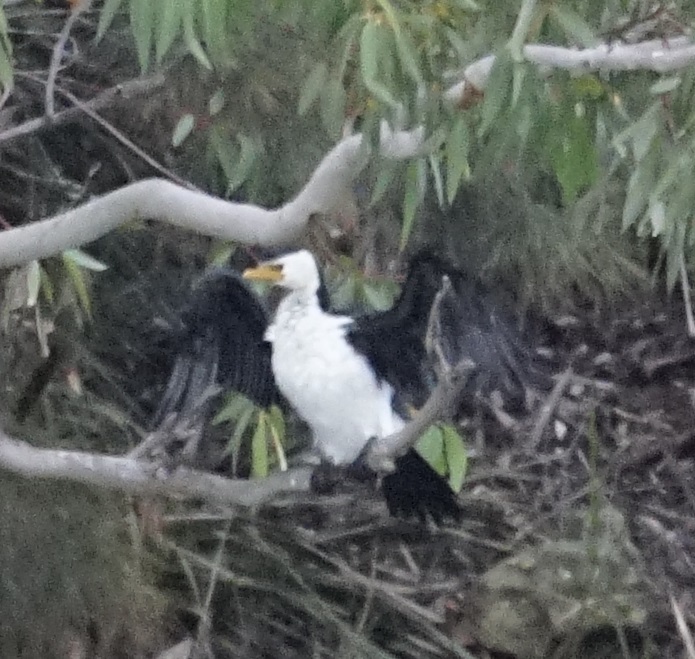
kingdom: Animalia
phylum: Chordata
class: Aves
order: Suliformes
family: Phalacrocoracidae
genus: Microcarbo
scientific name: Microcarbo melanoleucos
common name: Little pied cormorant
